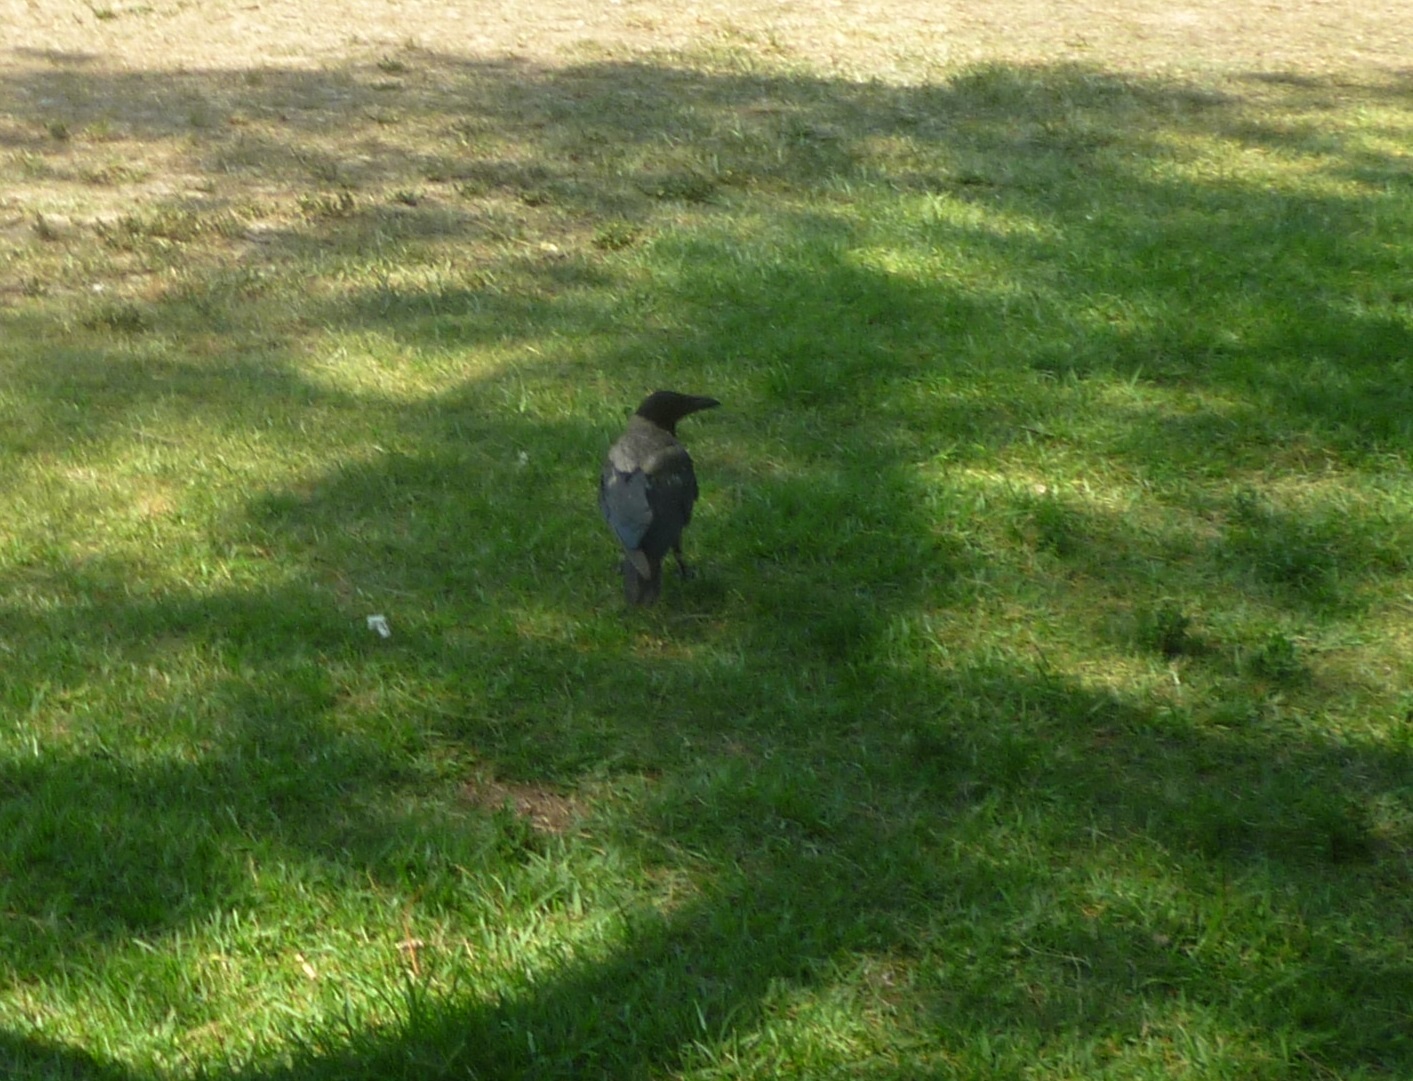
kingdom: Animalia
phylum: Chordata
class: Aves
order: Passeriformes
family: Corvidae
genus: Corvus
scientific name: Corvus cornix
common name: Hooded crow
